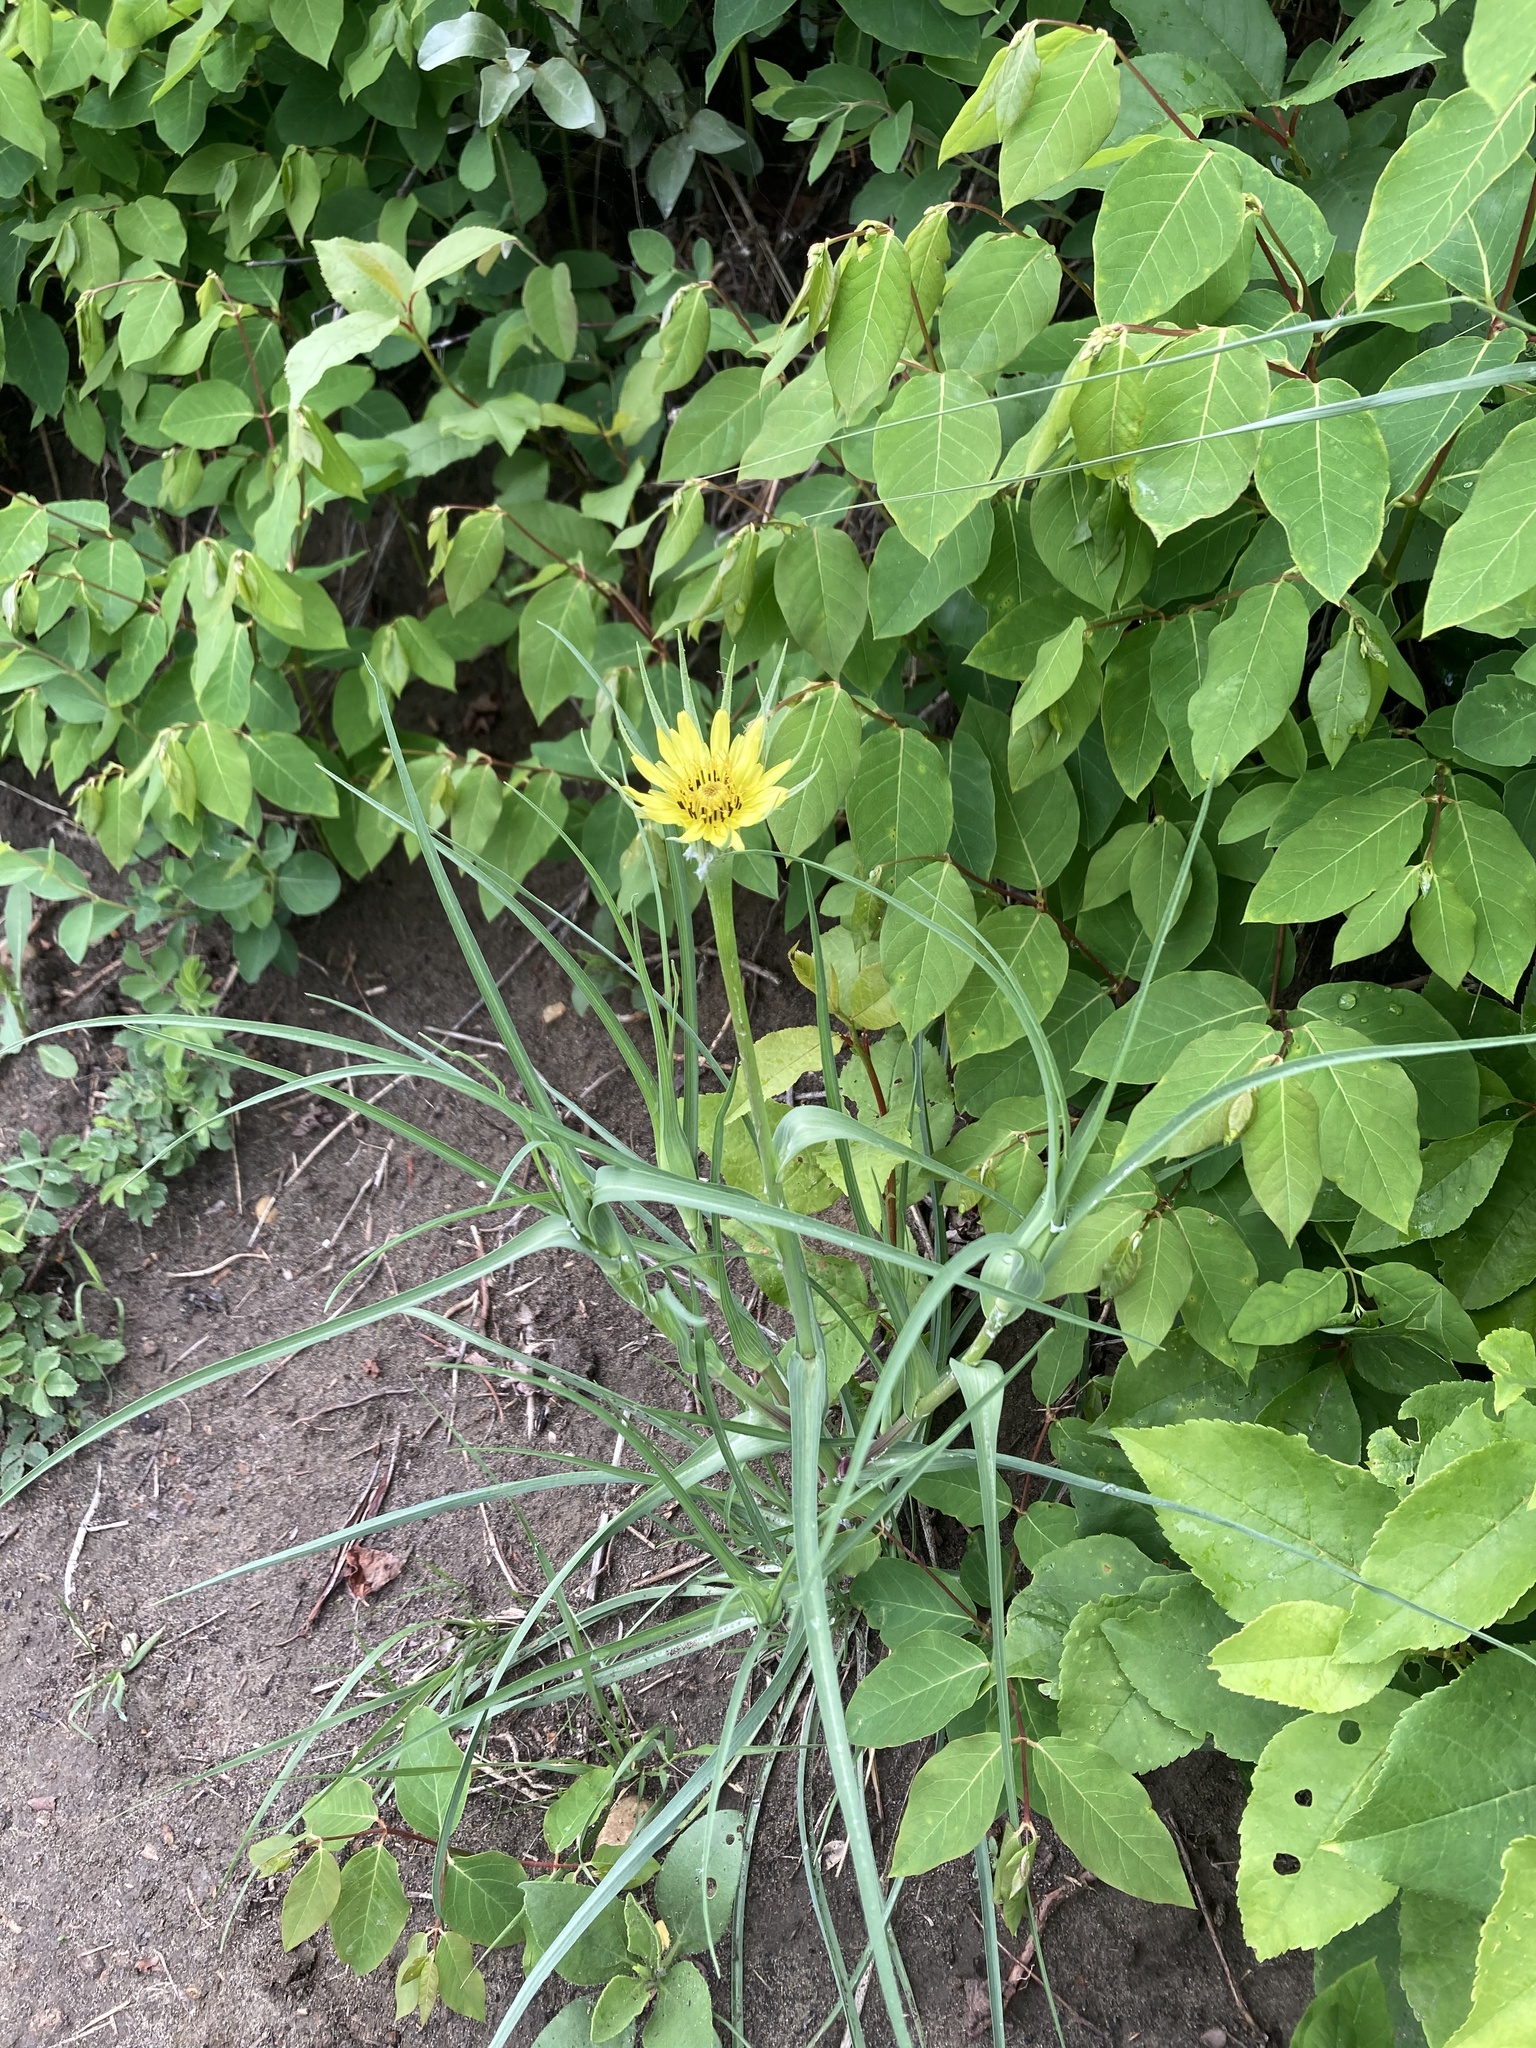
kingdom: Plantae
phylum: Tracheophyta
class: Magnoliopsida
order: Asterales
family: Asteraceae
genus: Tragopogon
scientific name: Tragopogon dubius
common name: Yellow salsify
